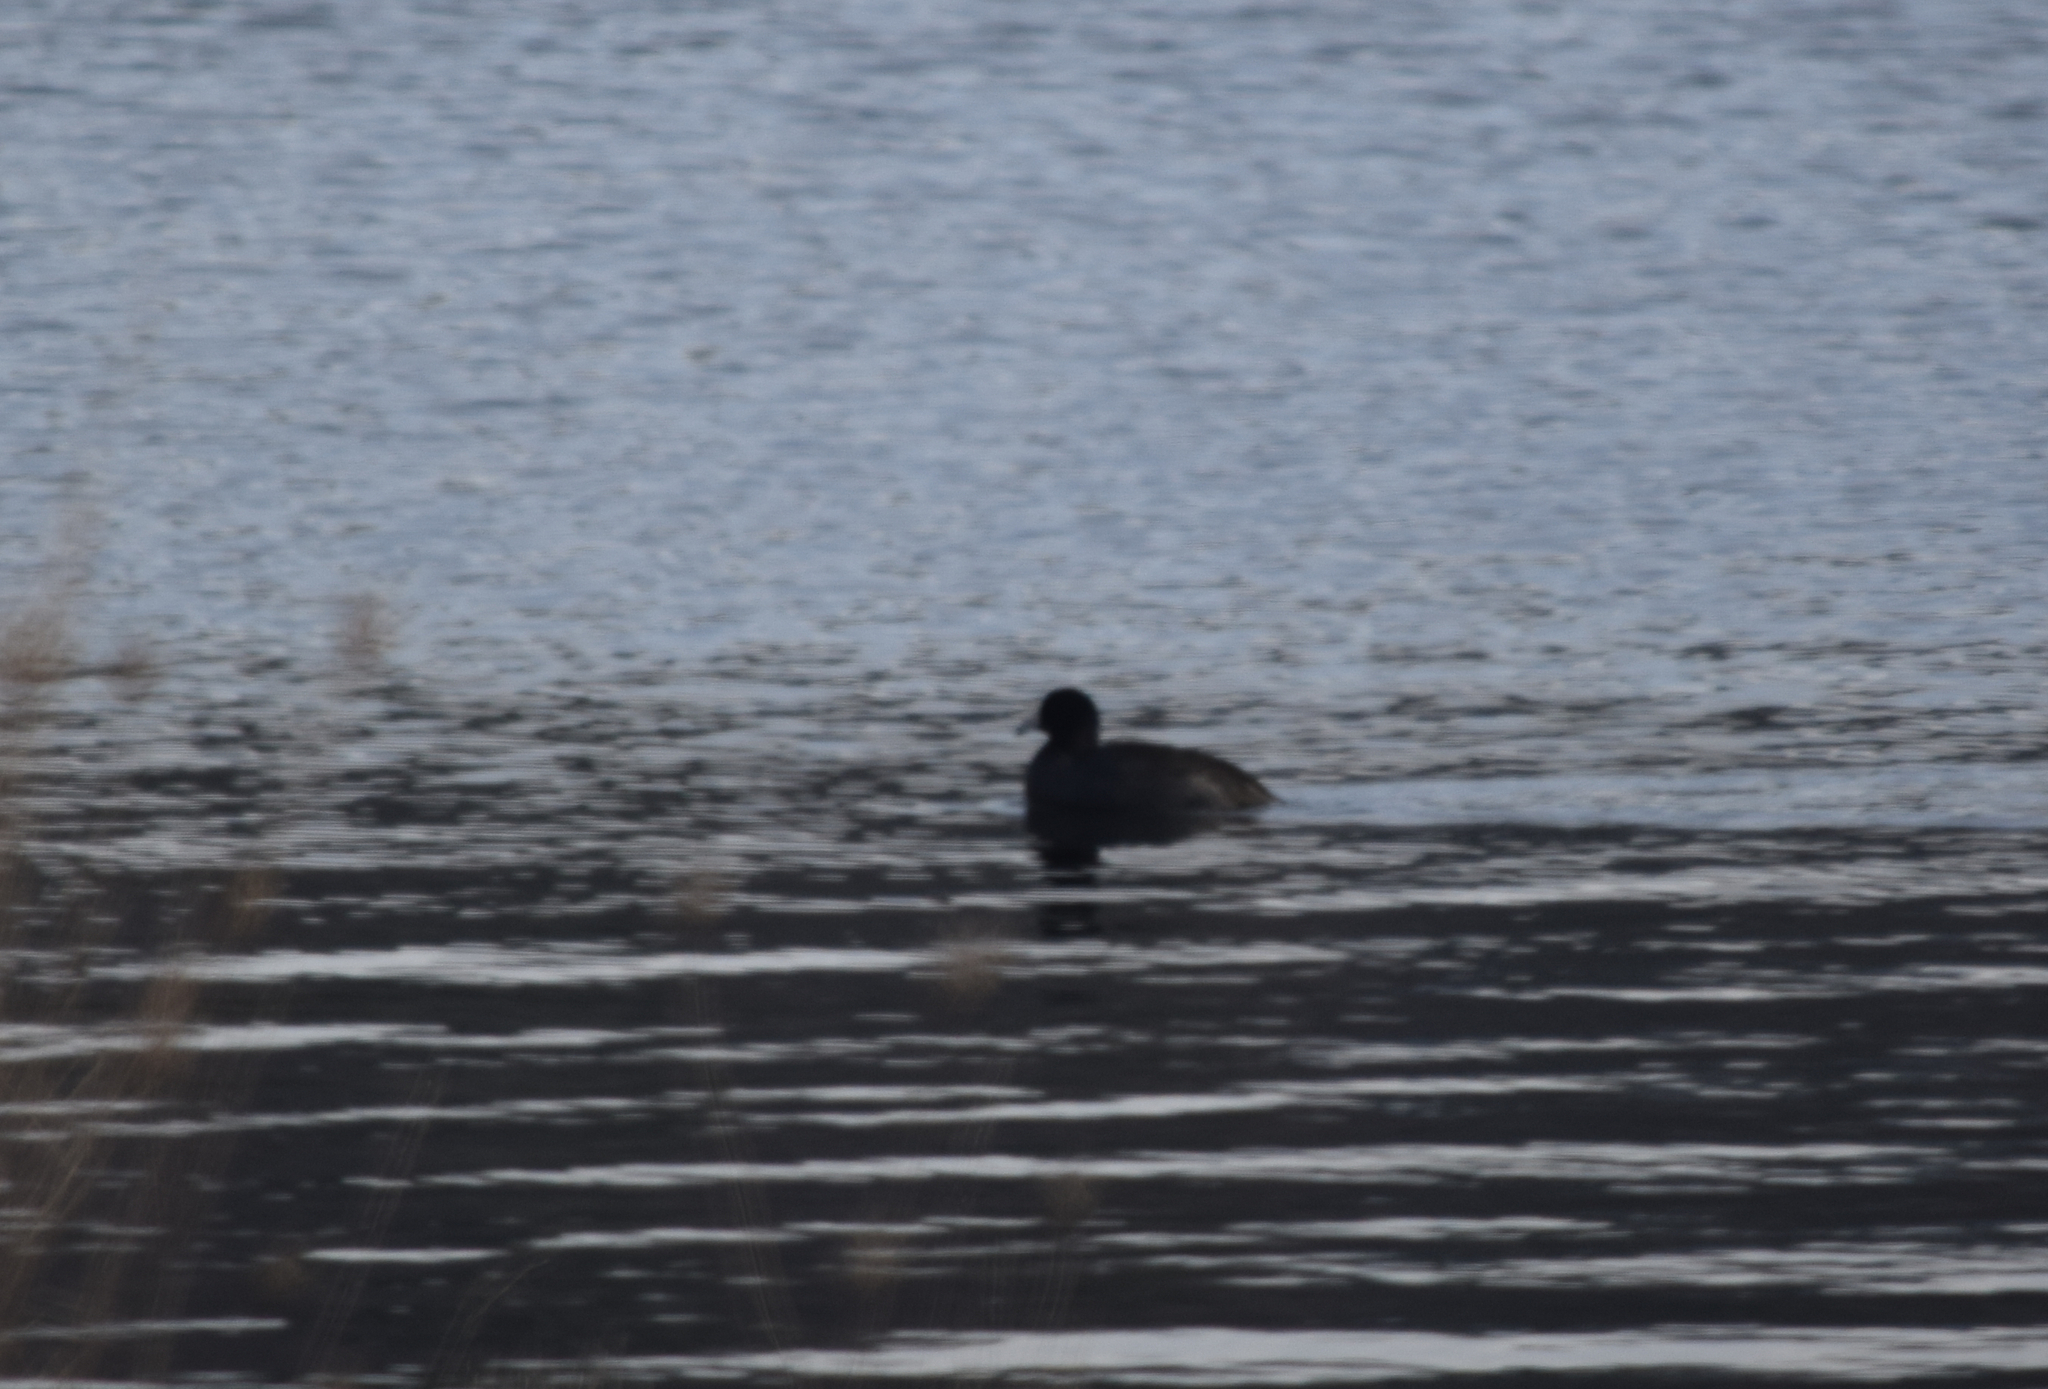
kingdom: Animalia
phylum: Chordata
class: Aves
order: Gruiformes
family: Rallidae
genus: Fulica
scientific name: Fulica americana
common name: American coot
